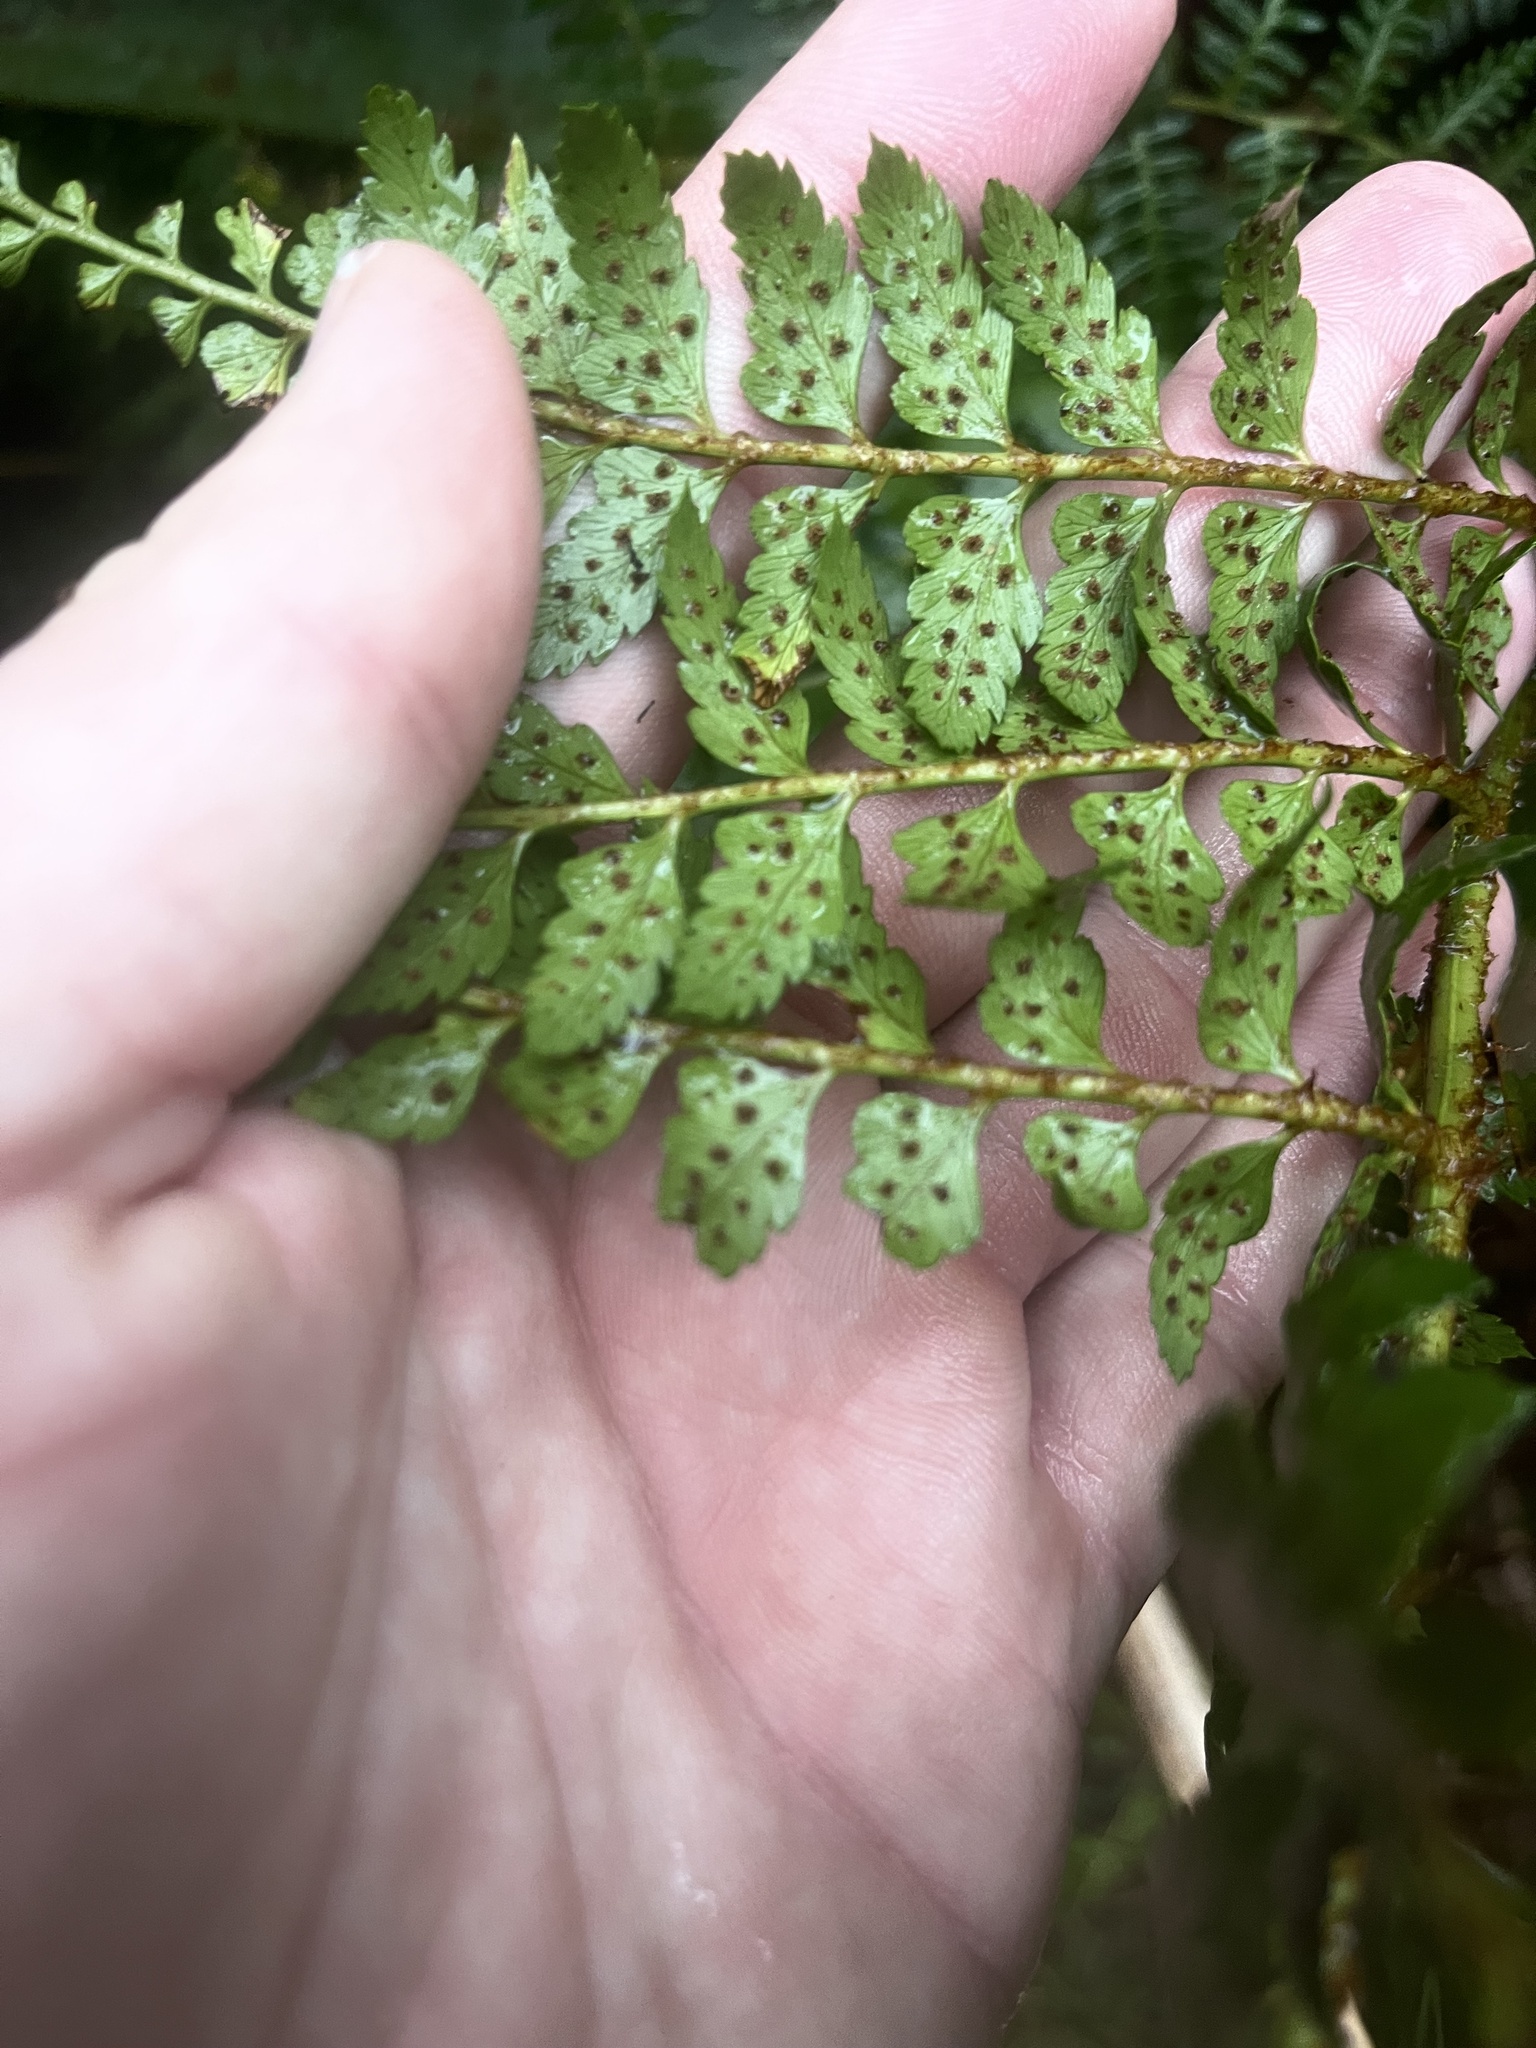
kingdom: Plantae
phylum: Tracheophyta
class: Polypodiopsida
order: Polypodiales
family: Dryopteridaceae
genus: Polystichum
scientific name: Polystichum vestitum
